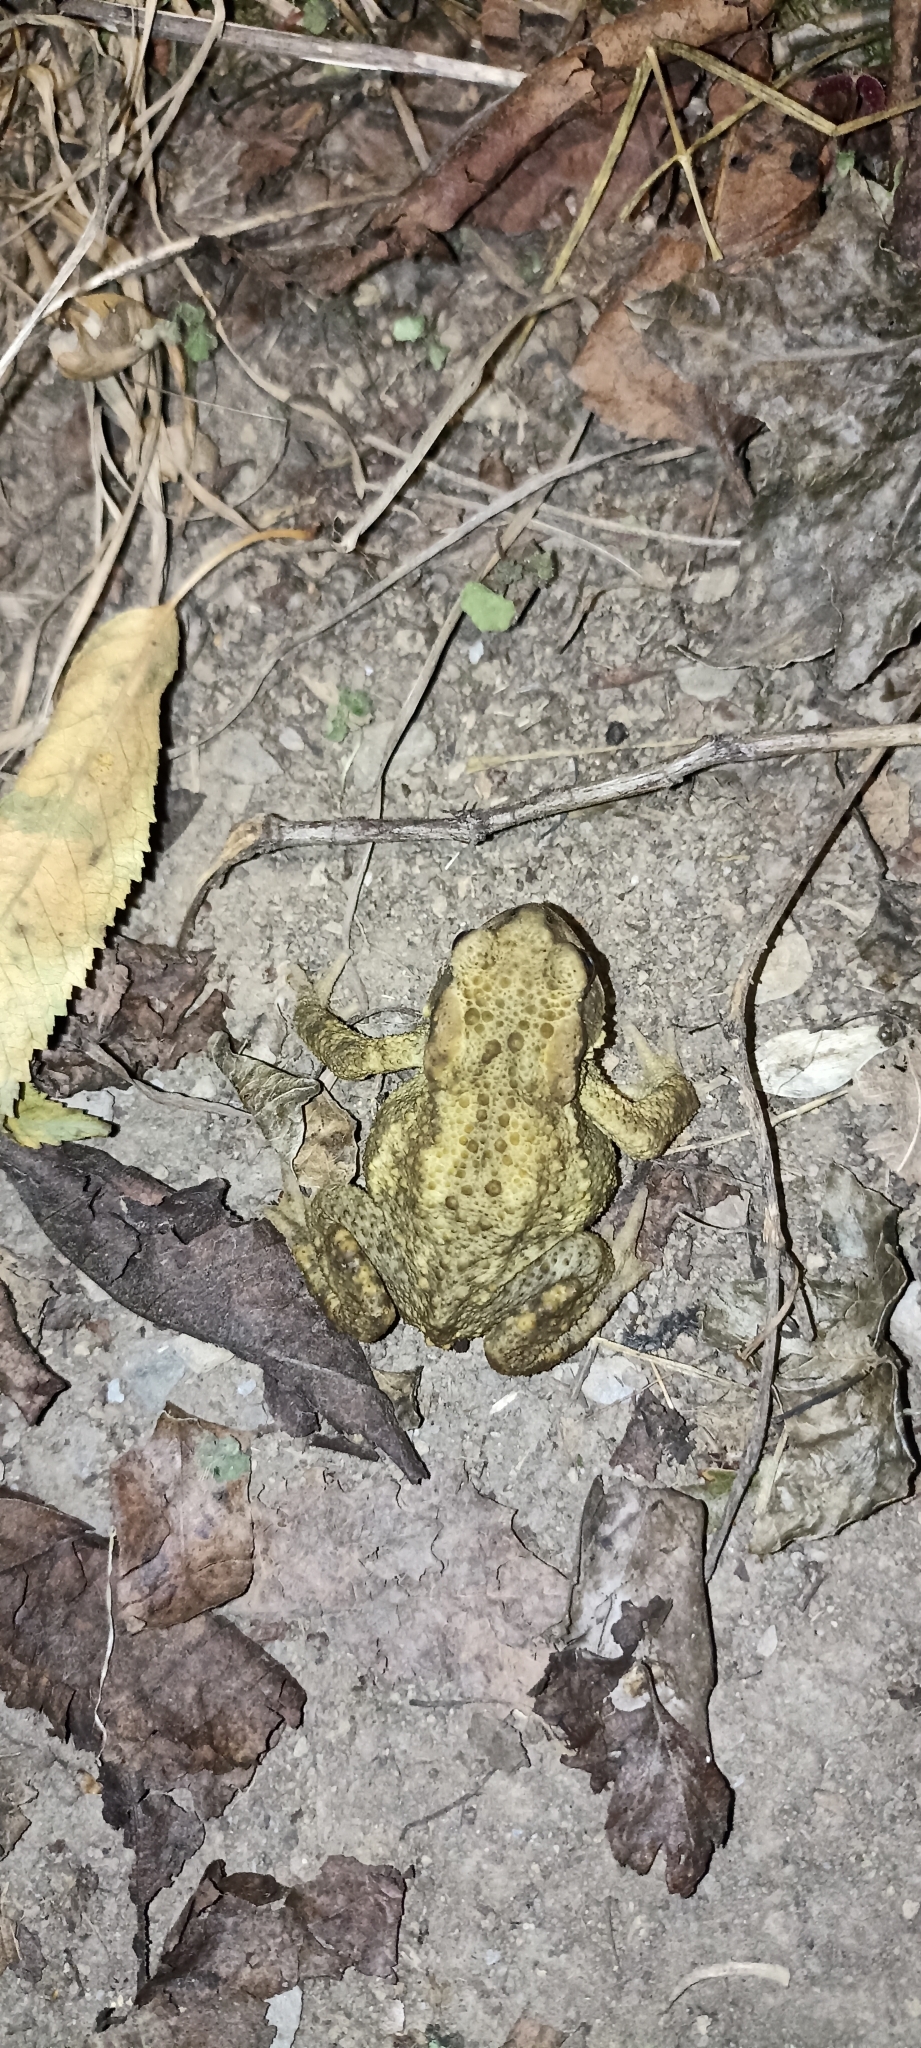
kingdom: Animalia
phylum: Chordata
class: Amphibia
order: Anura
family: Bufonidae
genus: Bufo
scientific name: Bufo spinosus
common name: Western common toad
